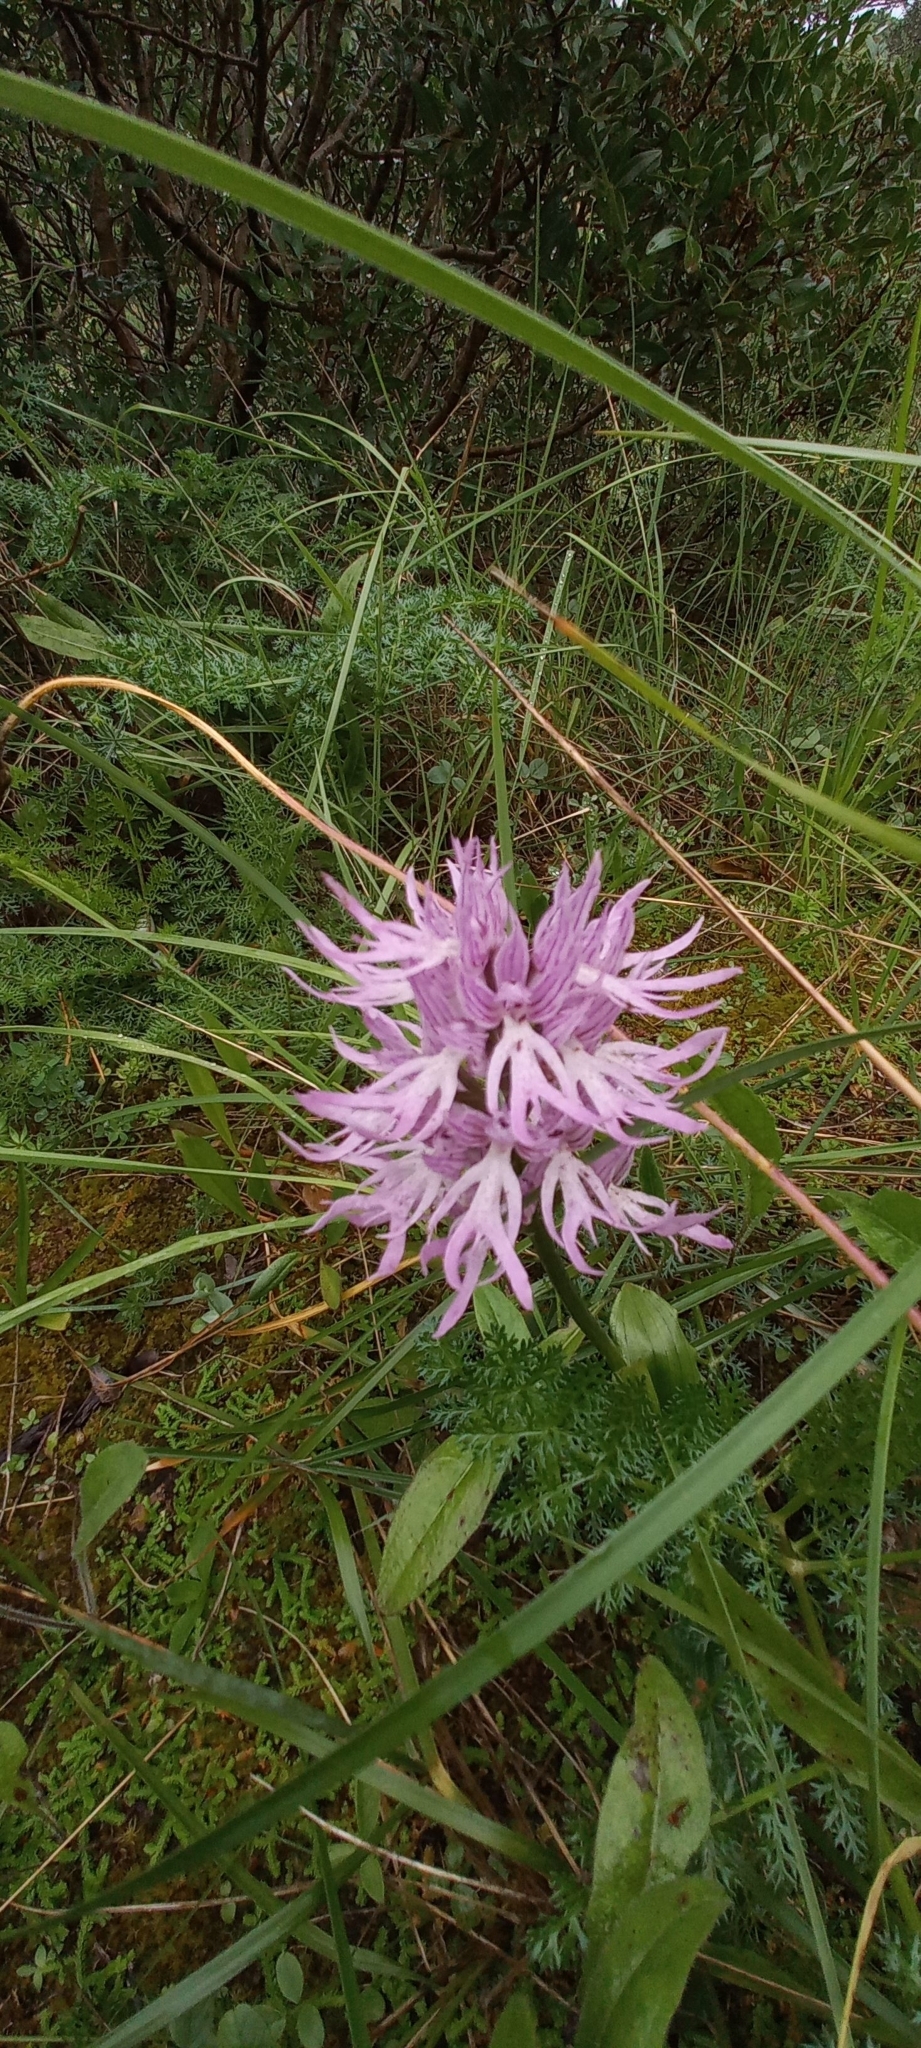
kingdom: Plantae
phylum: Tracheophyta
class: Liliopsida
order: Asparagales
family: Orchidaceae
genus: Orchis
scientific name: Orchis italica
